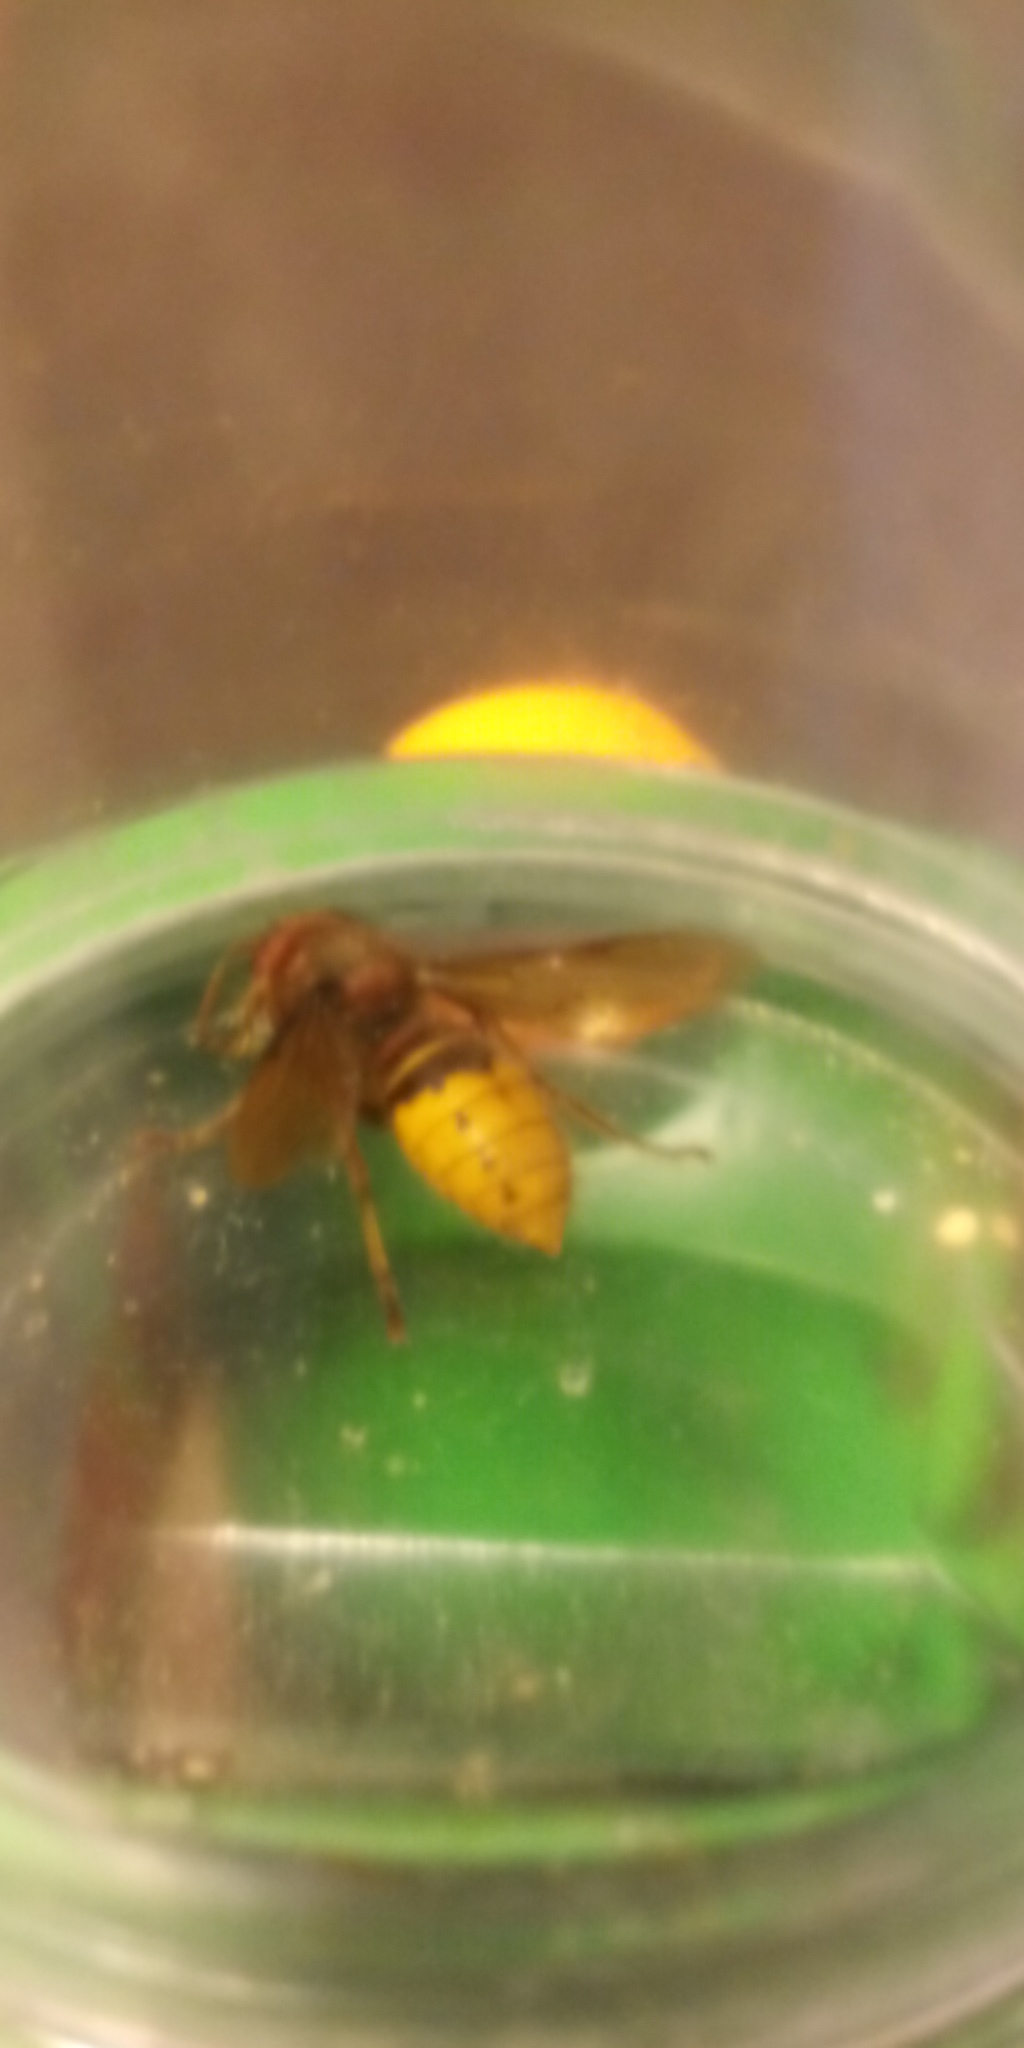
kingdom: Animalia
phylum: Arthropoda
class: Insecta
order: Hymenoptera
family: Vespidae
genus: Vespa
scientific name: Vespa crabro
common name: Hornet
